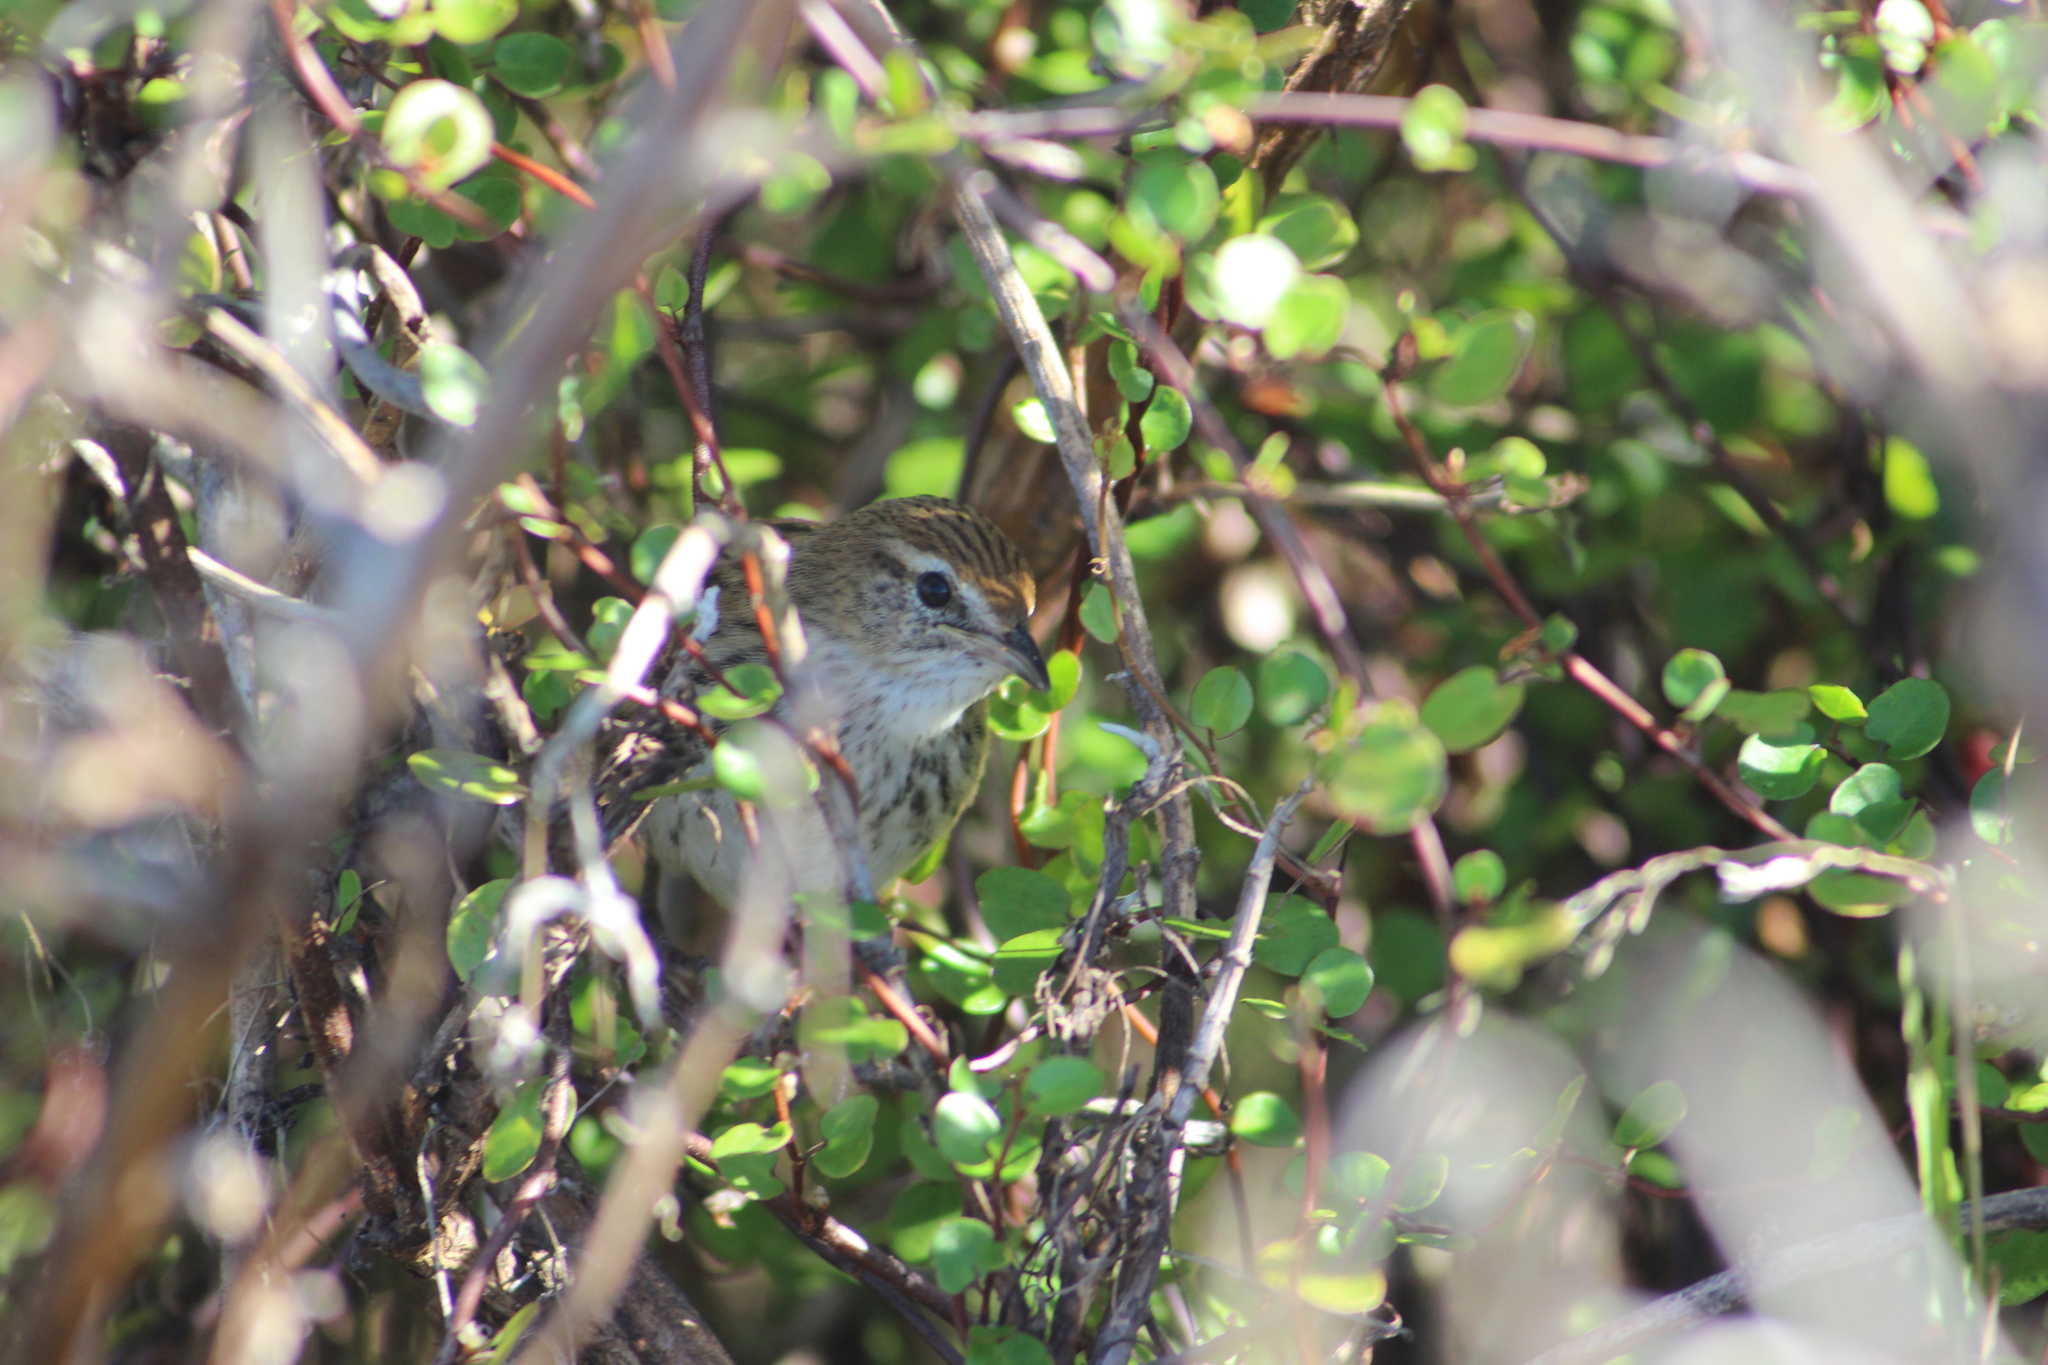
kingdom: Animalia
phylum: Chordata
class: Aves
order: Passeriformes
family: Locustellidae
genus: Megalurus
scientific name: Megalurus punctatus
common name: New zealand fernbird
